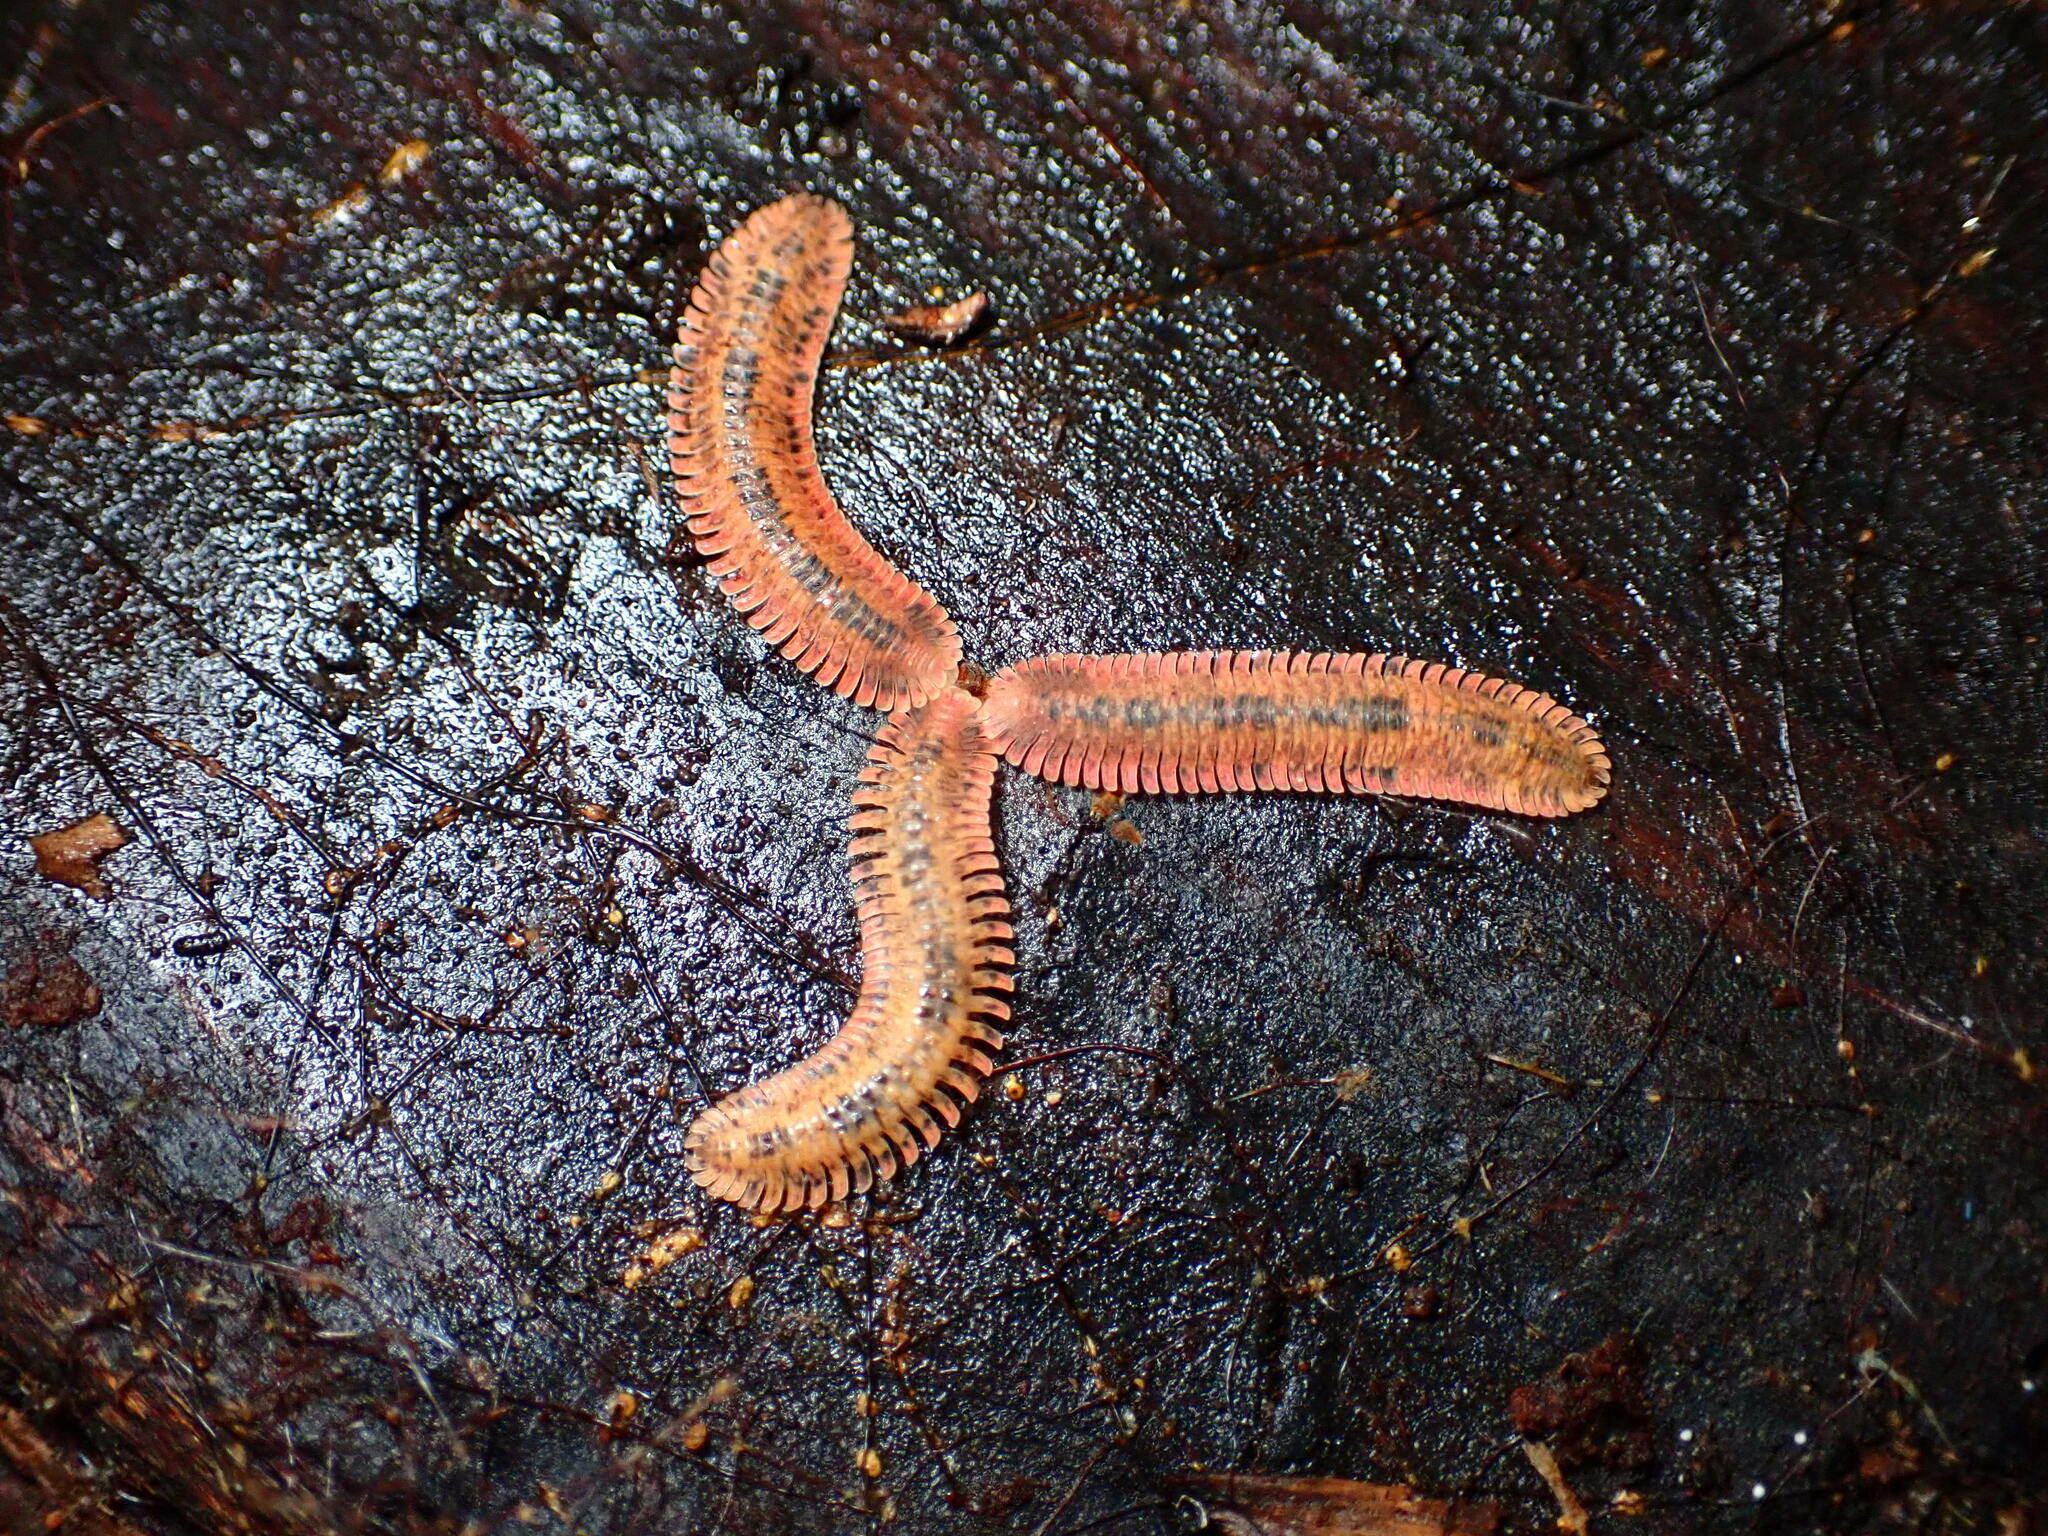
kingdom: Animalia
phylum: Arthropoda
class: Diplopoda
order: Platydesmida
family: Andrognathidae
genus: Brachycybe
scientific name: Brachycybe picta
